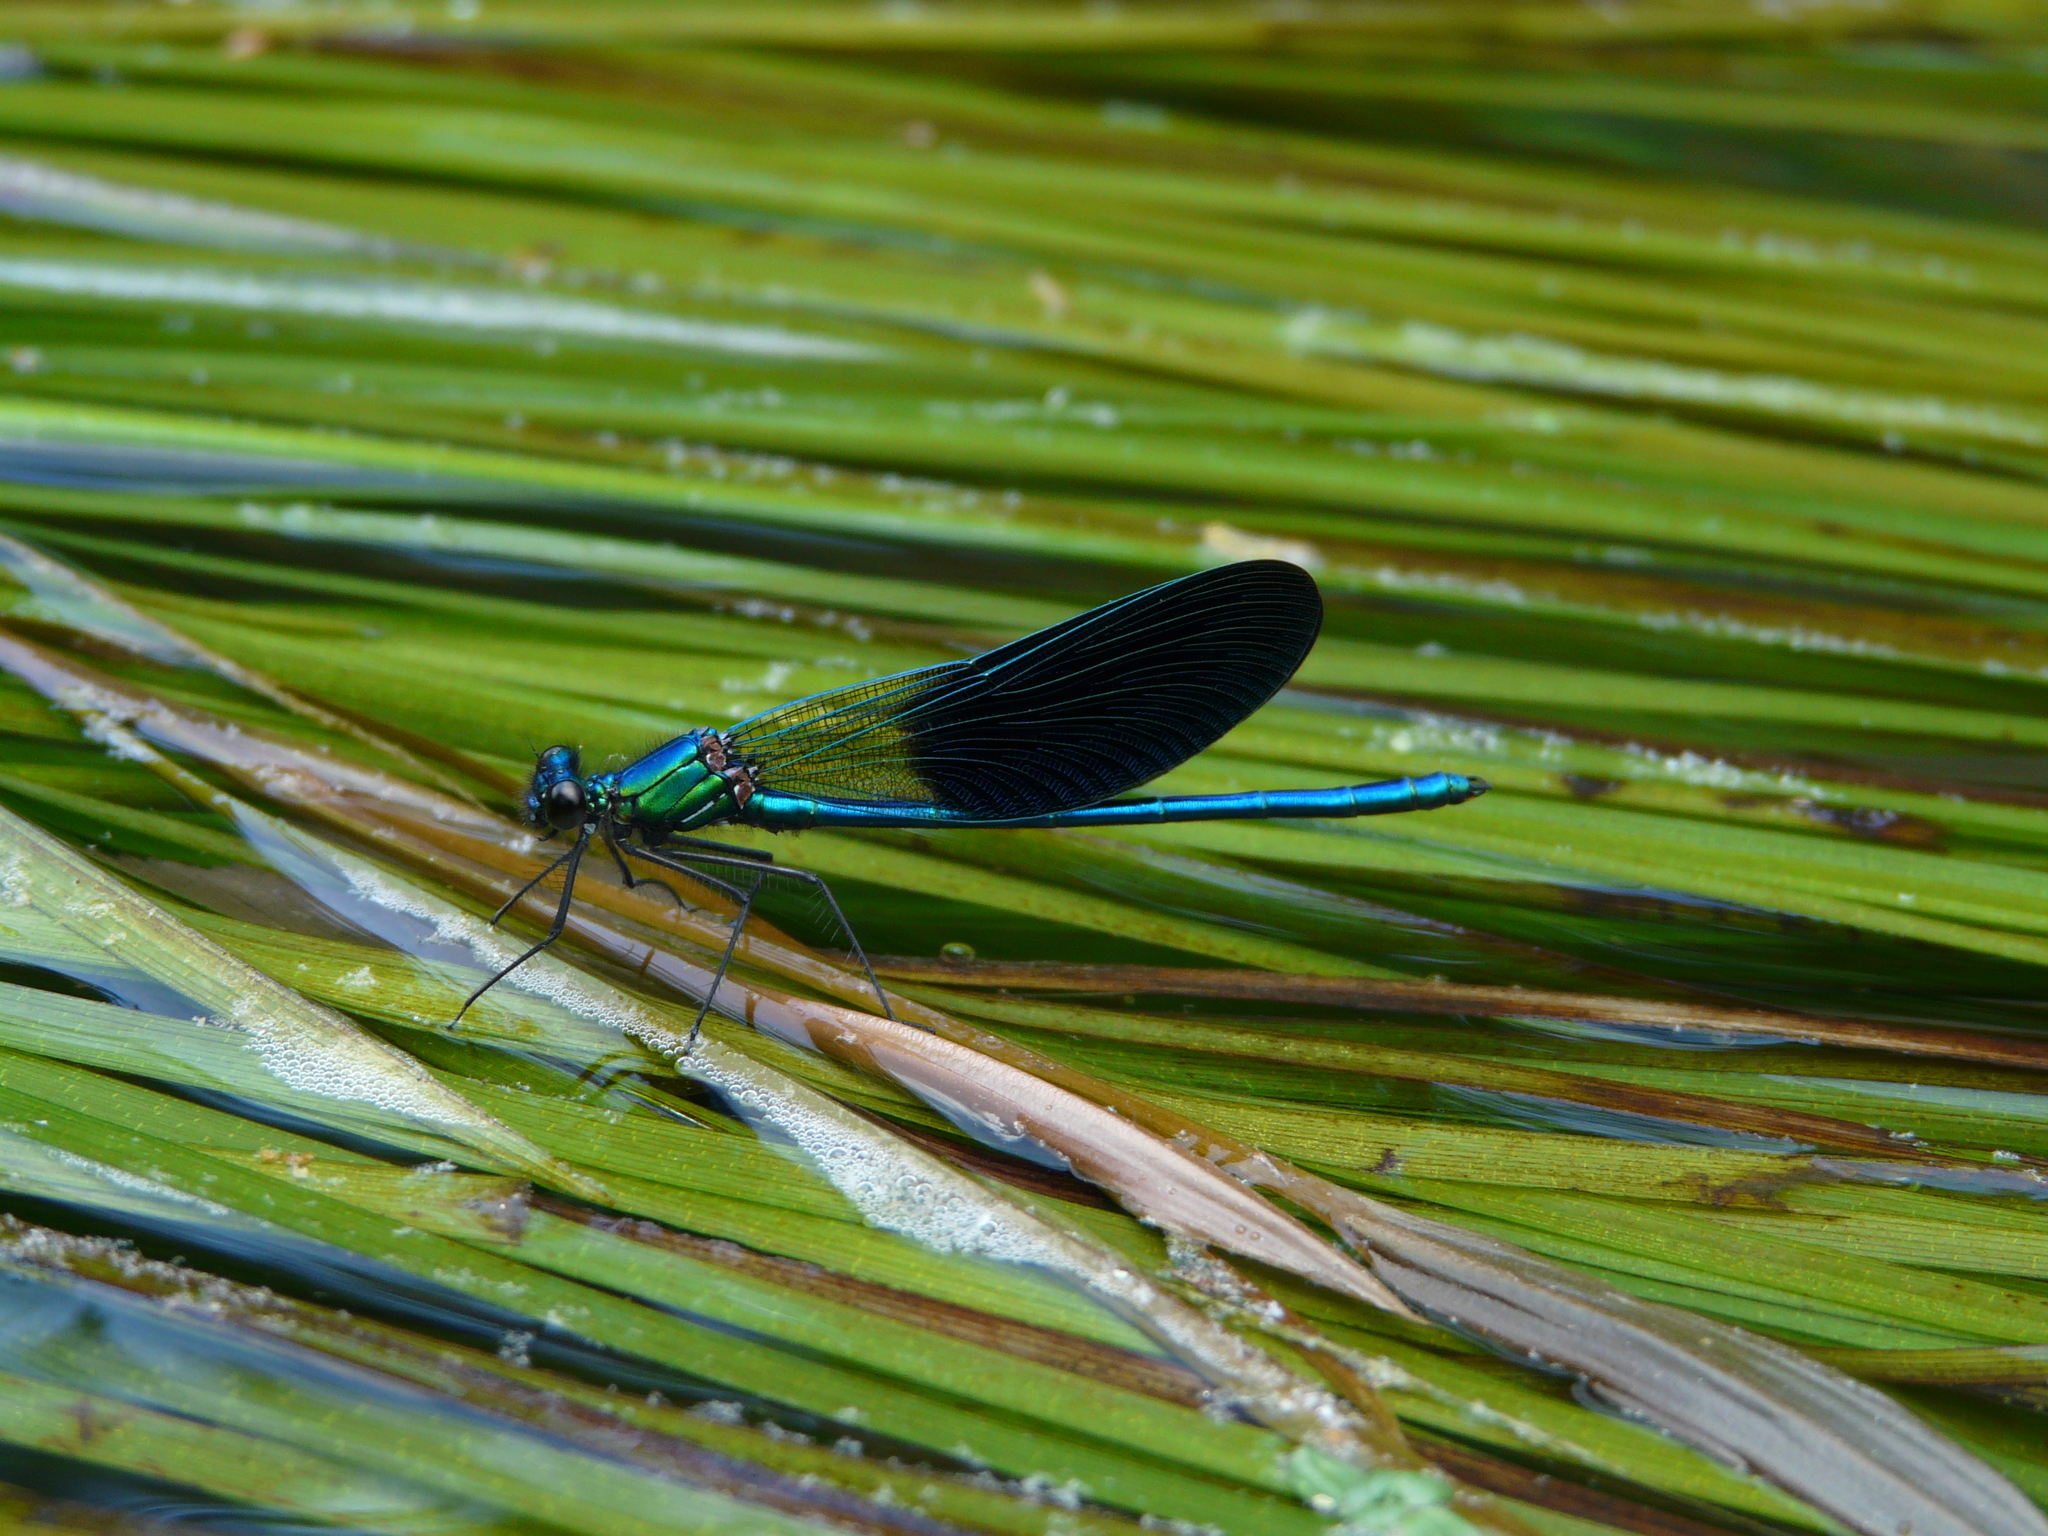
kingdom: Animalia
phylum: Arthropoda
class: Insecta
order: Odonata
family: Calopterygidae
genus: Calopteryx
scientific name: Calopteryx xanthostoma
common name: Western demoiselle
